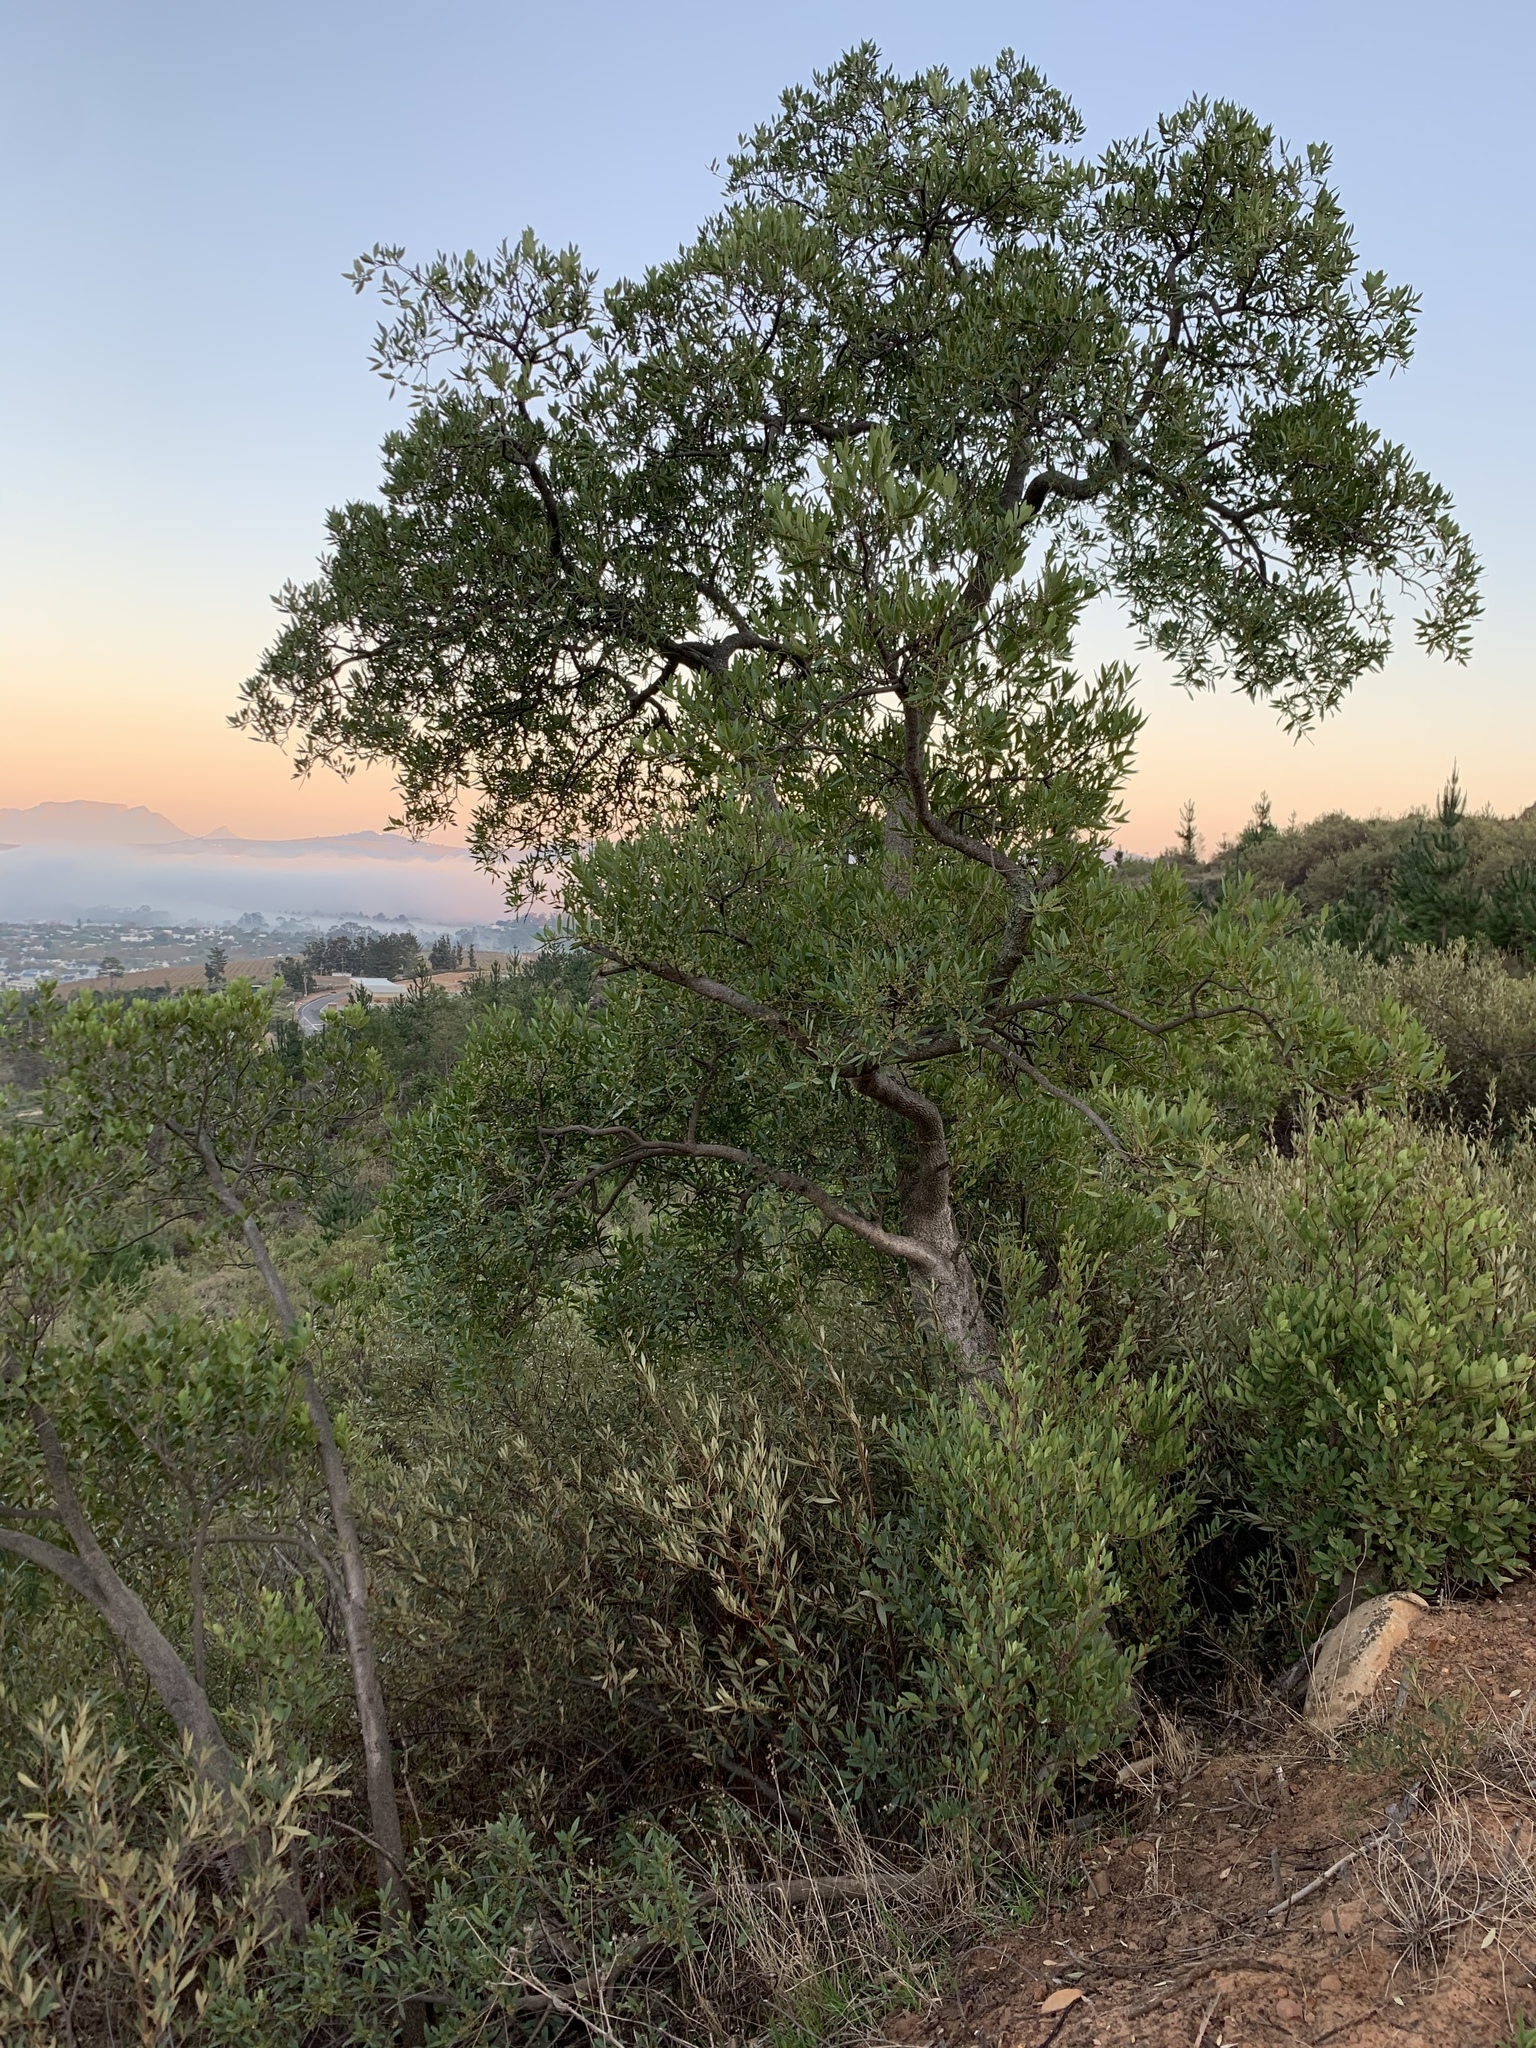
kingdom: Plantae
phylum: Tracheophyta
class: Magnoliopsida
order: Celastrales
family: Celastraceae
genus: Gymnosporia
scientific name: Gymnosporia laurina
